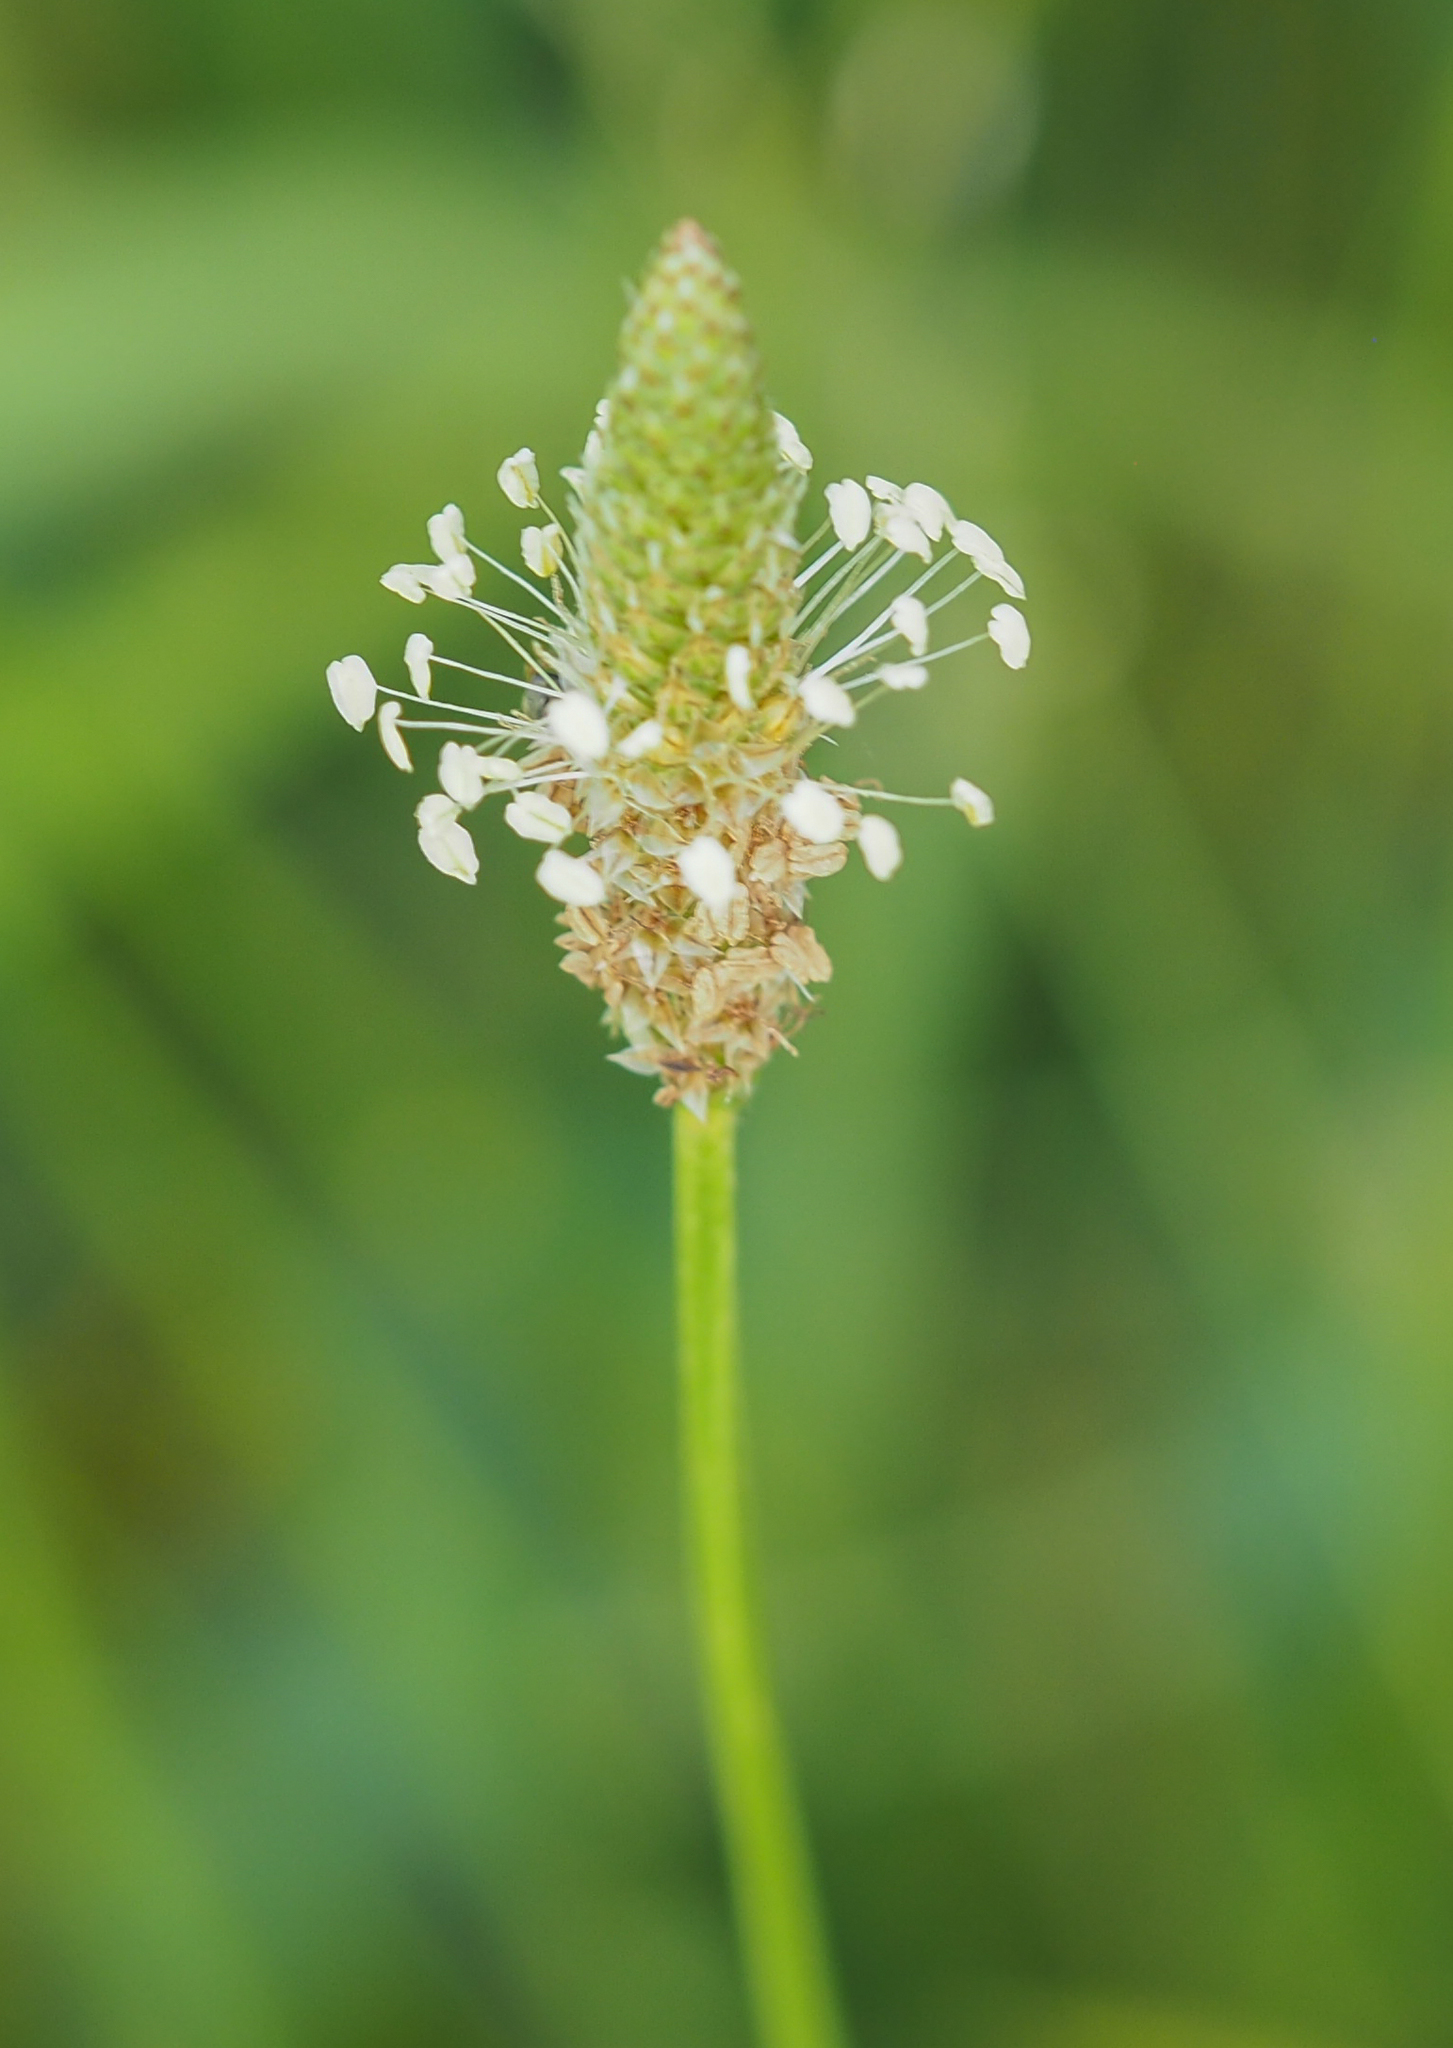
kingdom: Plantae
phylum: Tracheophyta
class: Magnoliopsida
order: Lamiales
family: Plantaginaceae
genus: Plantago
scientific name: Plantago lanceolata
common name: Ribwort plantain
